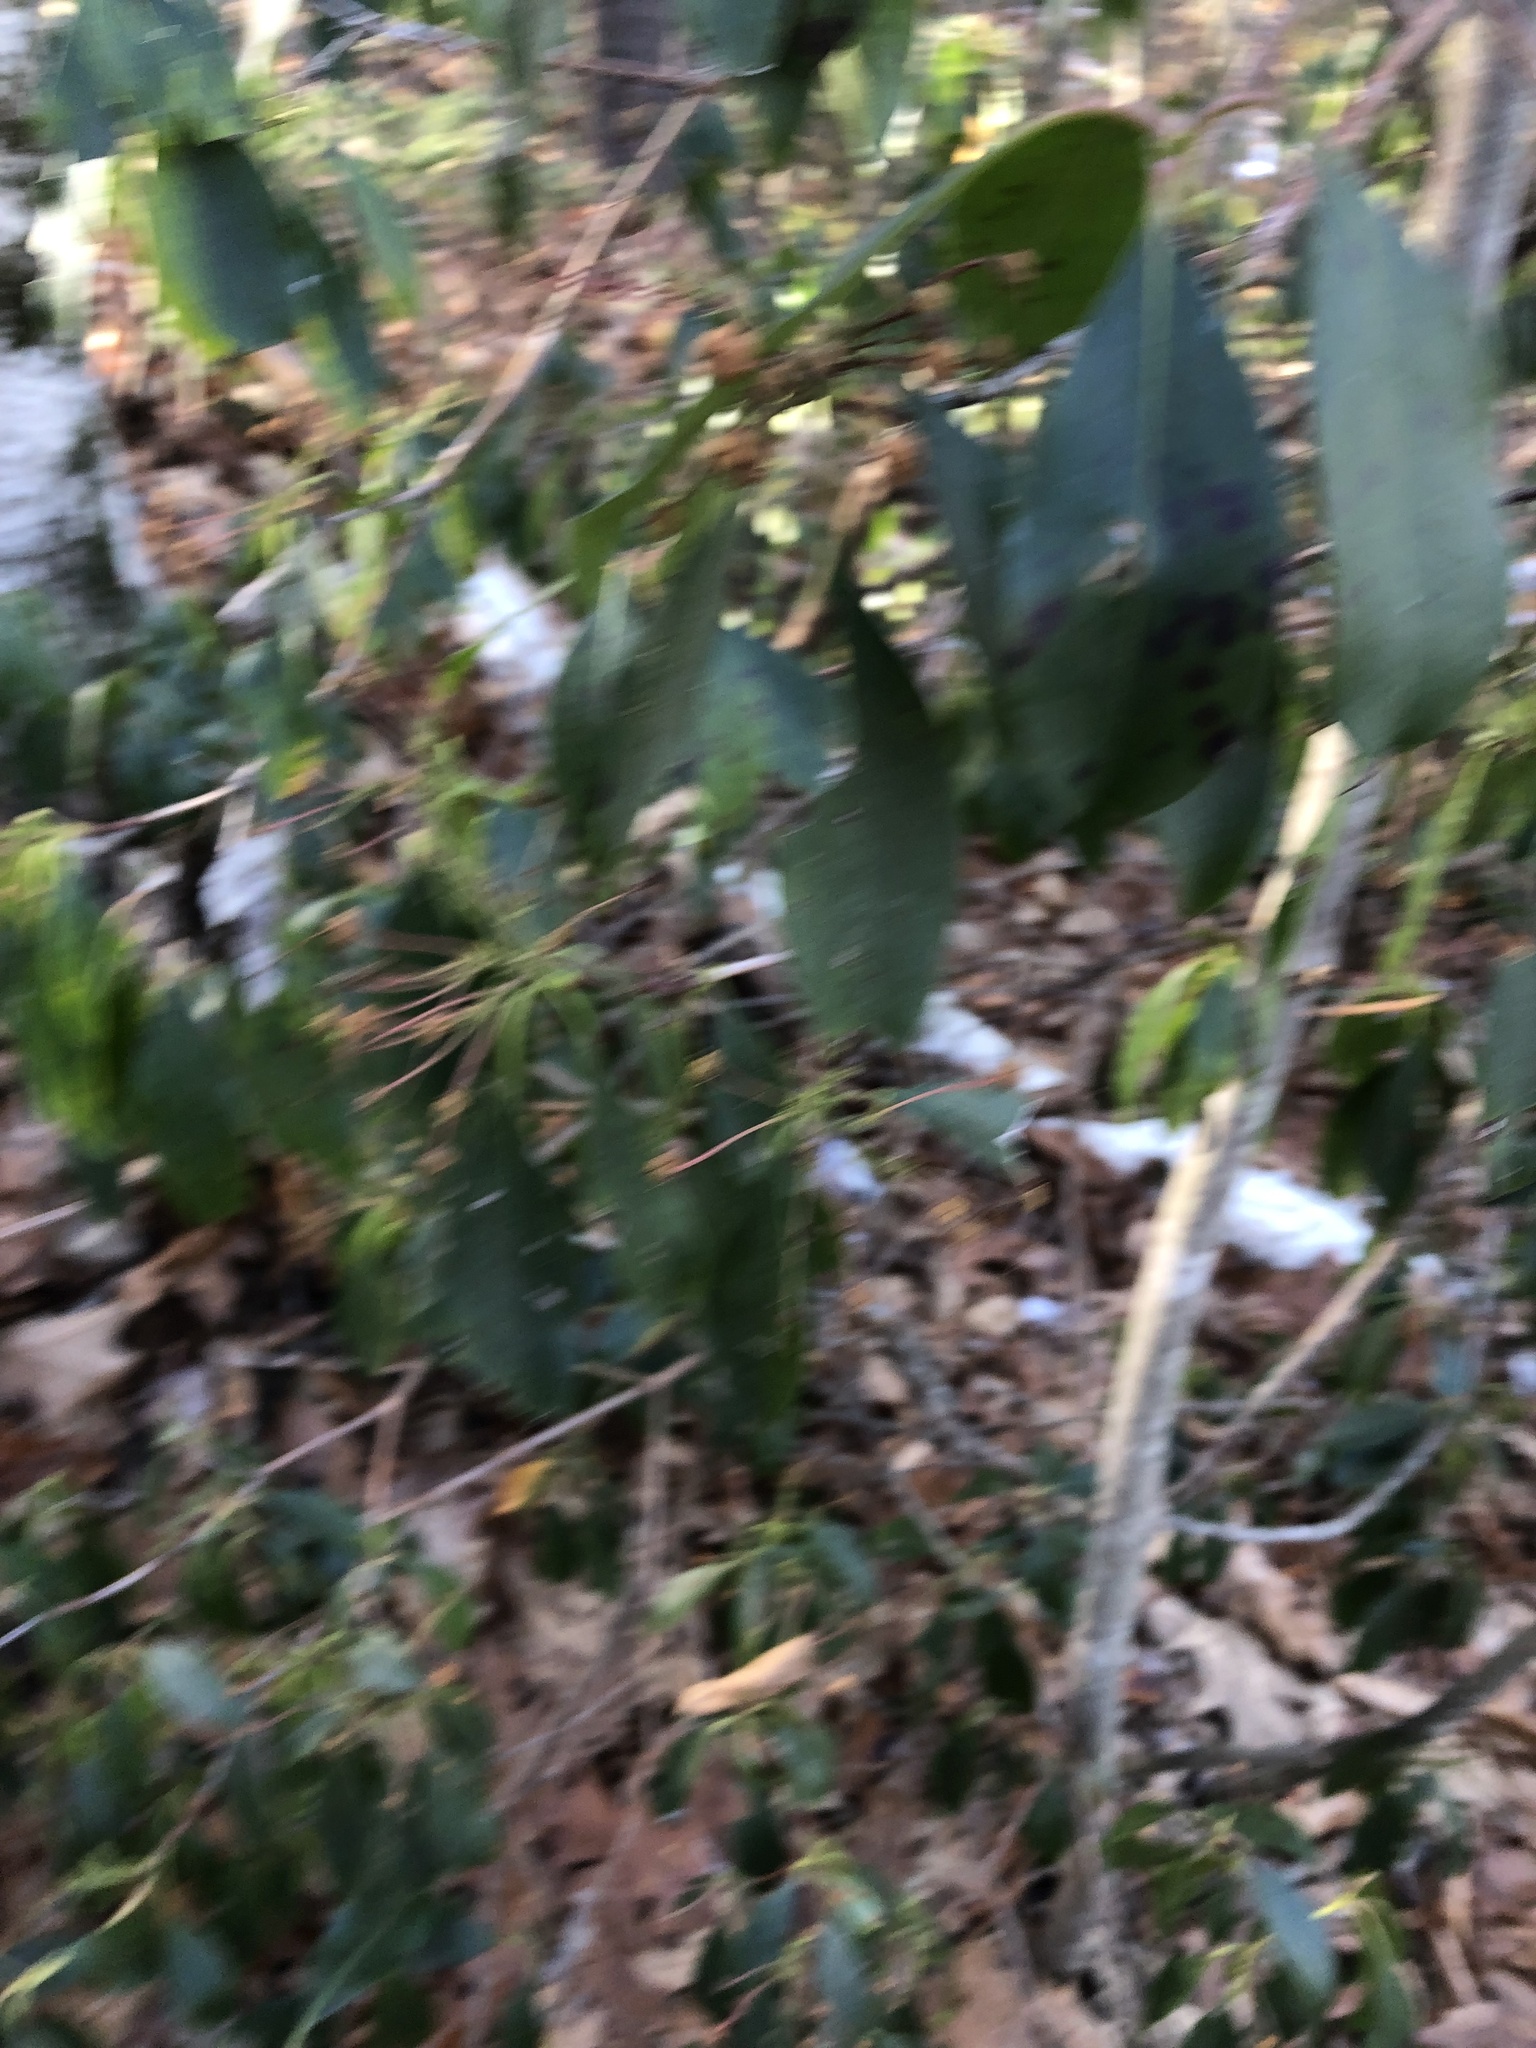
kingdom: Plantae
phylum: Tracheophyta
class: Magnoliopsida
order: Ericales
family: Ericaceae
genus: Kalmia
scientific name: Kalmia latifolia
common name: Mountain-laurel
